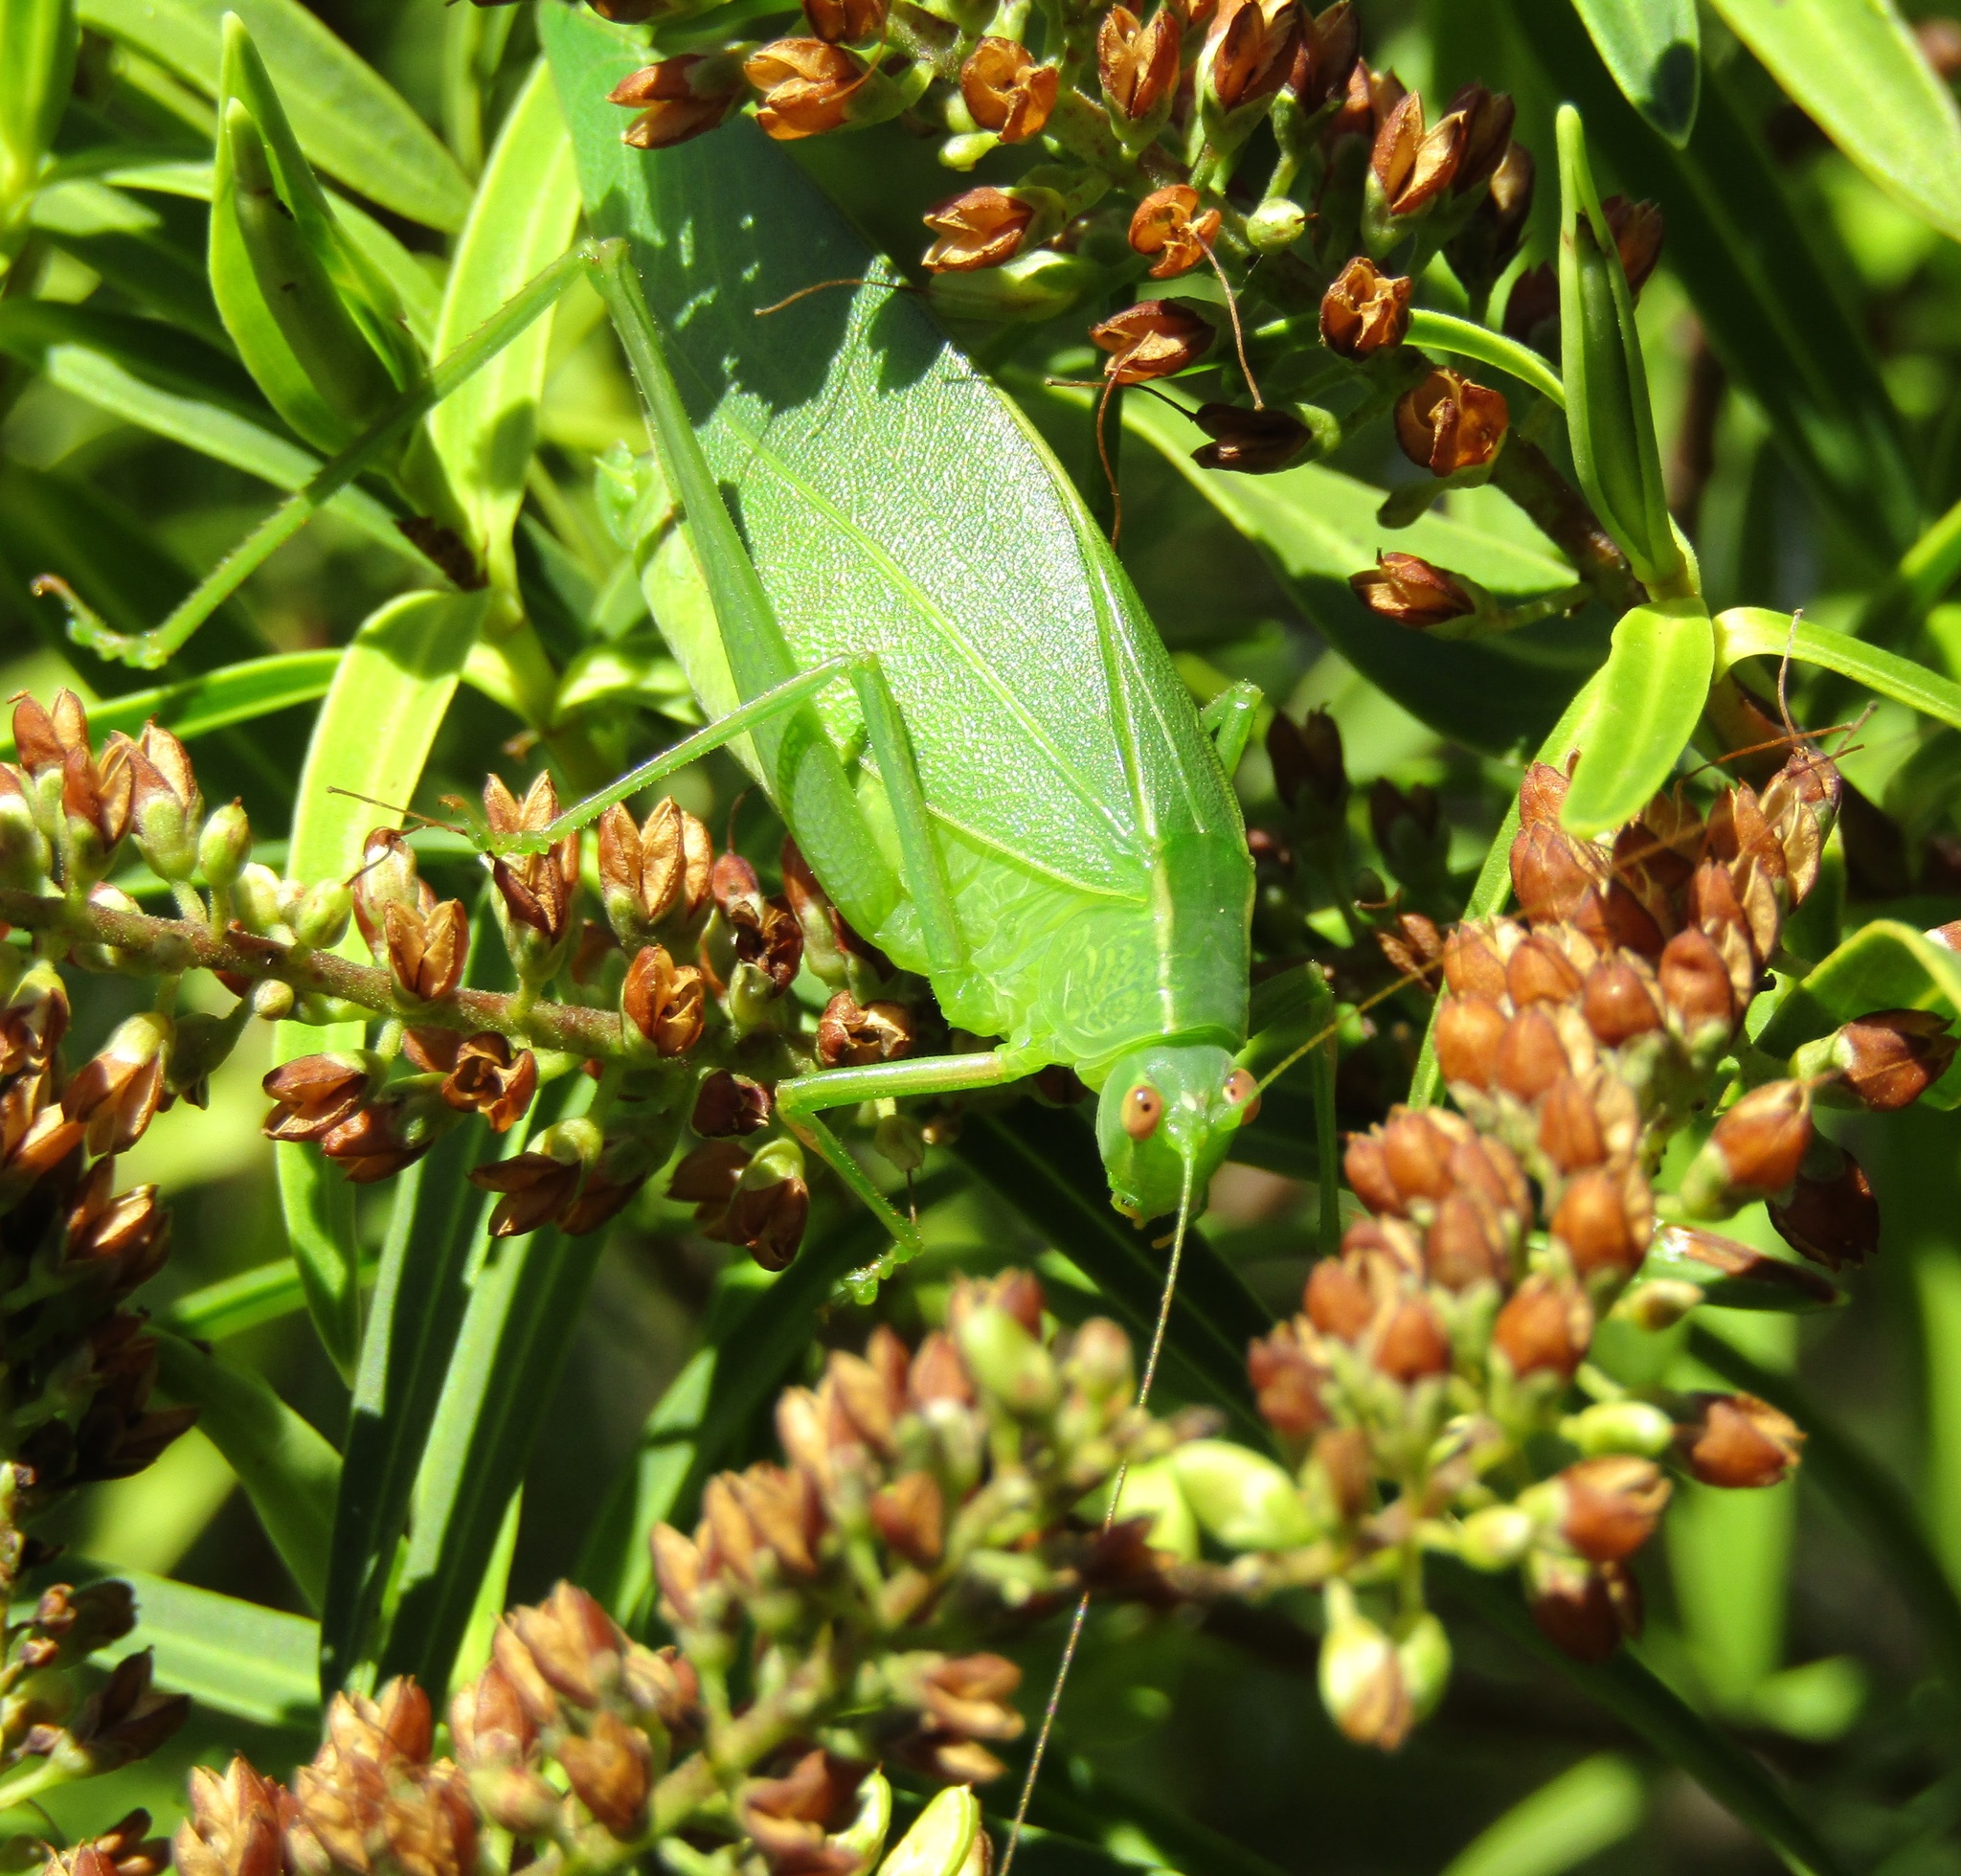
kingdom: Animalia
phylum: Arthropoda
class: Insecta
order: Orthoptera
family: Tettigoniidae
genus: Caedicia
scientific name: Caedicia simplex
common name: Common garden katydid
